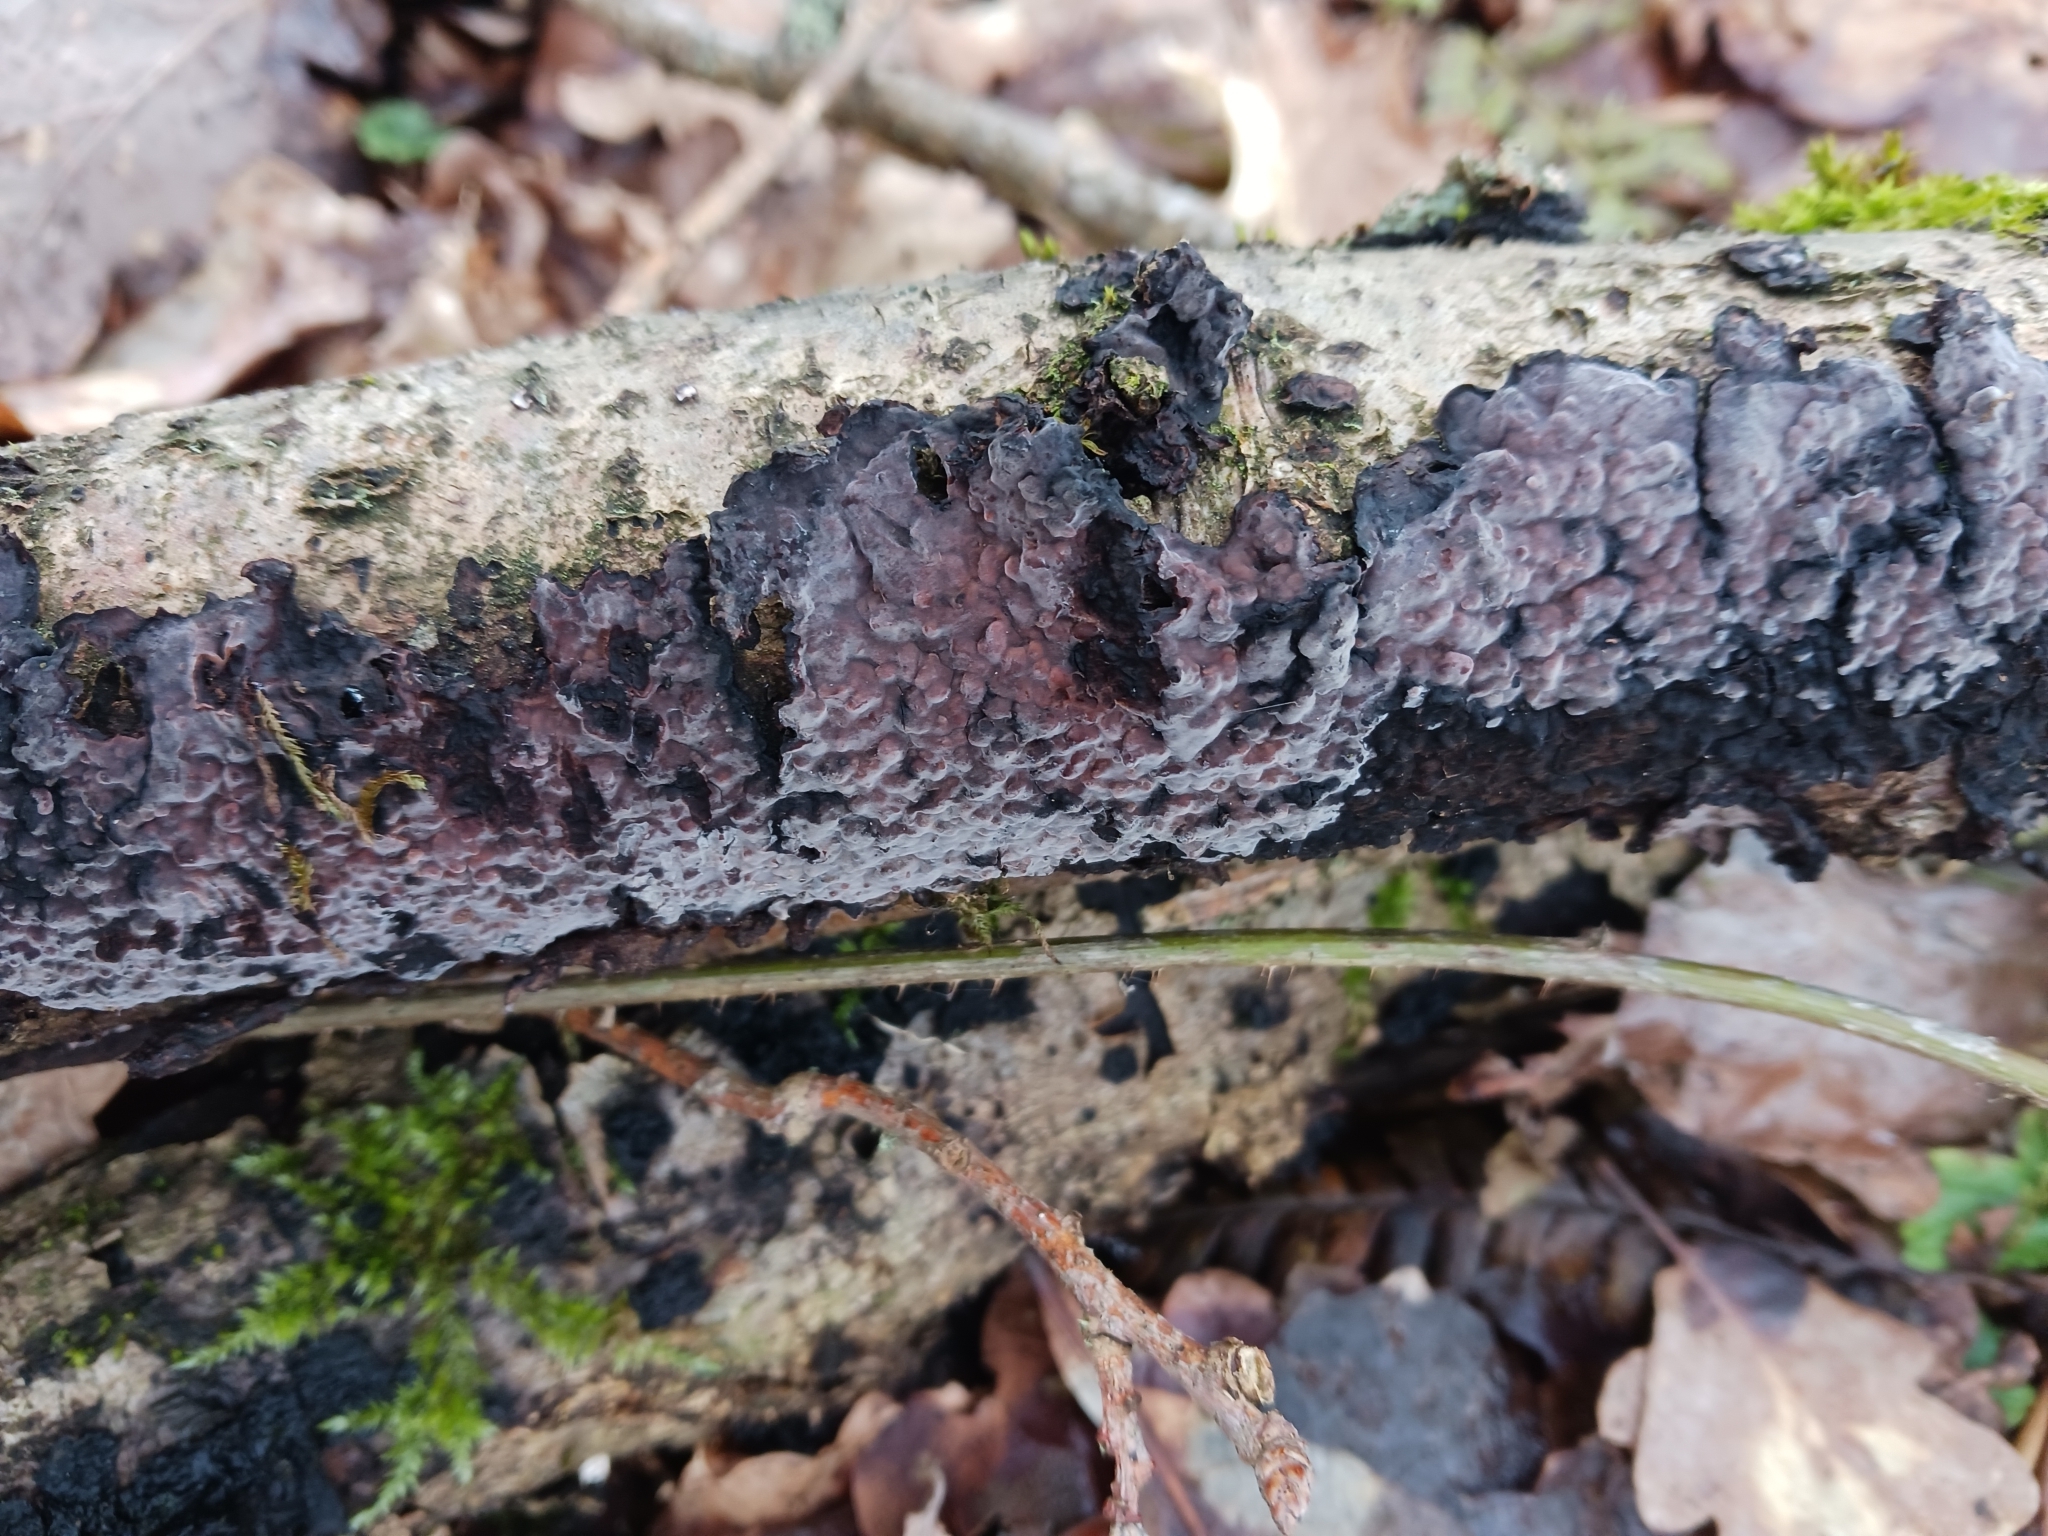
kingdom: Fungi
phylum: Basidiomycota
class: Agaricomycetes
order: Russulales
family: Peniophoraceae
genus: Peniophora
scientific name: Peniophora quercina
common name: Oak crust
